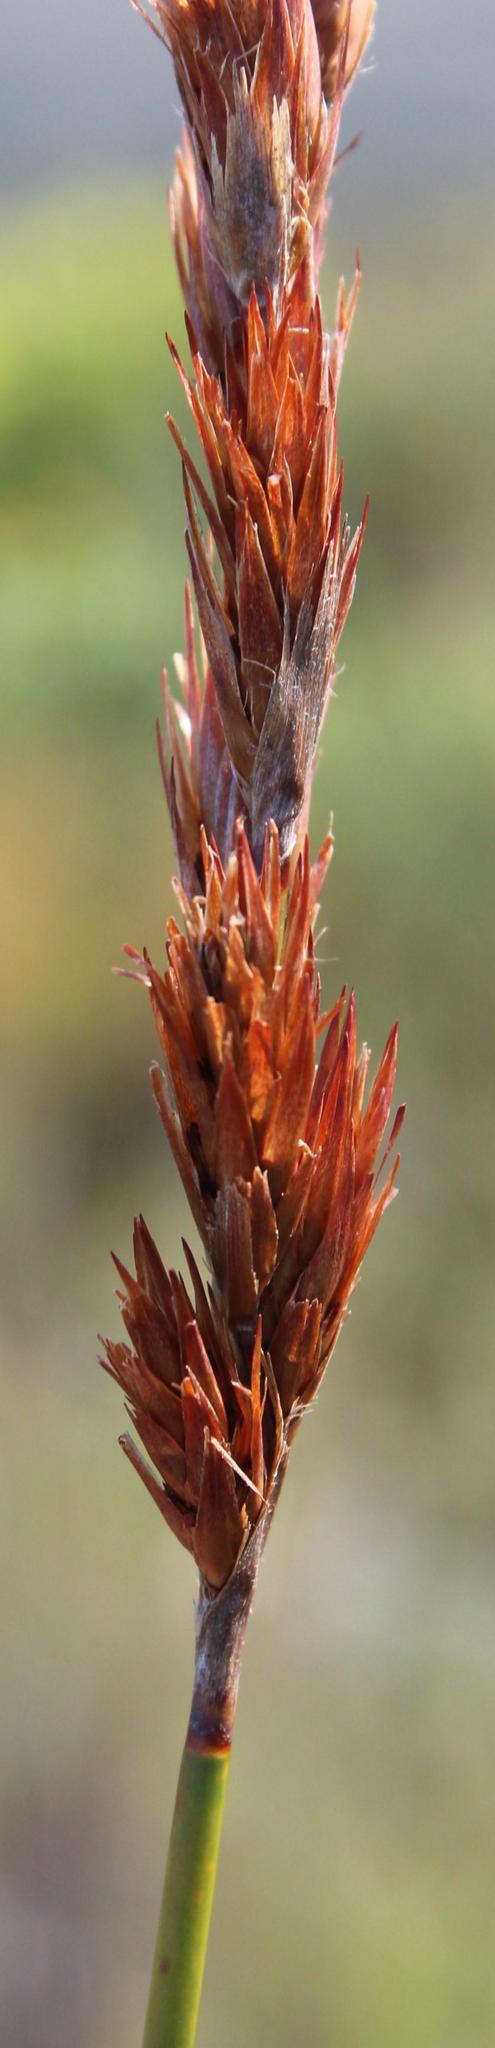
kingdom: Plantae
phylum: Tracheophyta
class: Liliopsida
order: Poales
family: Restionaceae
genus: Thamnochortus
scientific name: Thamnochortus fraternus
